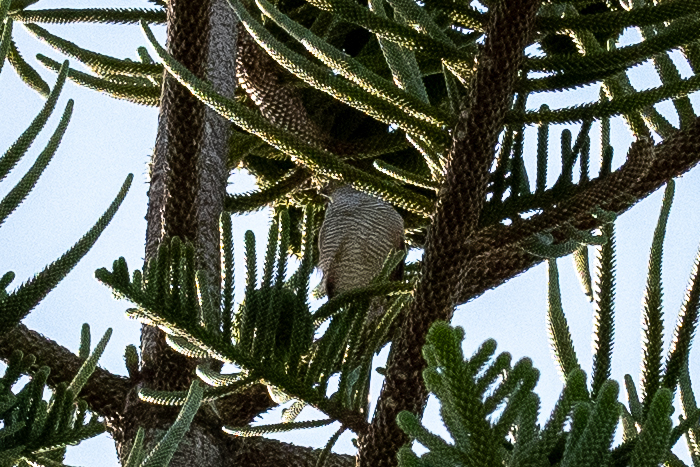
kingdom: Animalia
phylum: Chordata
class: Aves
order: Accipitriformes
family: Accipitridae
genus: Accipiter
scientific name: Accipiter tachiro
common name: African goshawk
